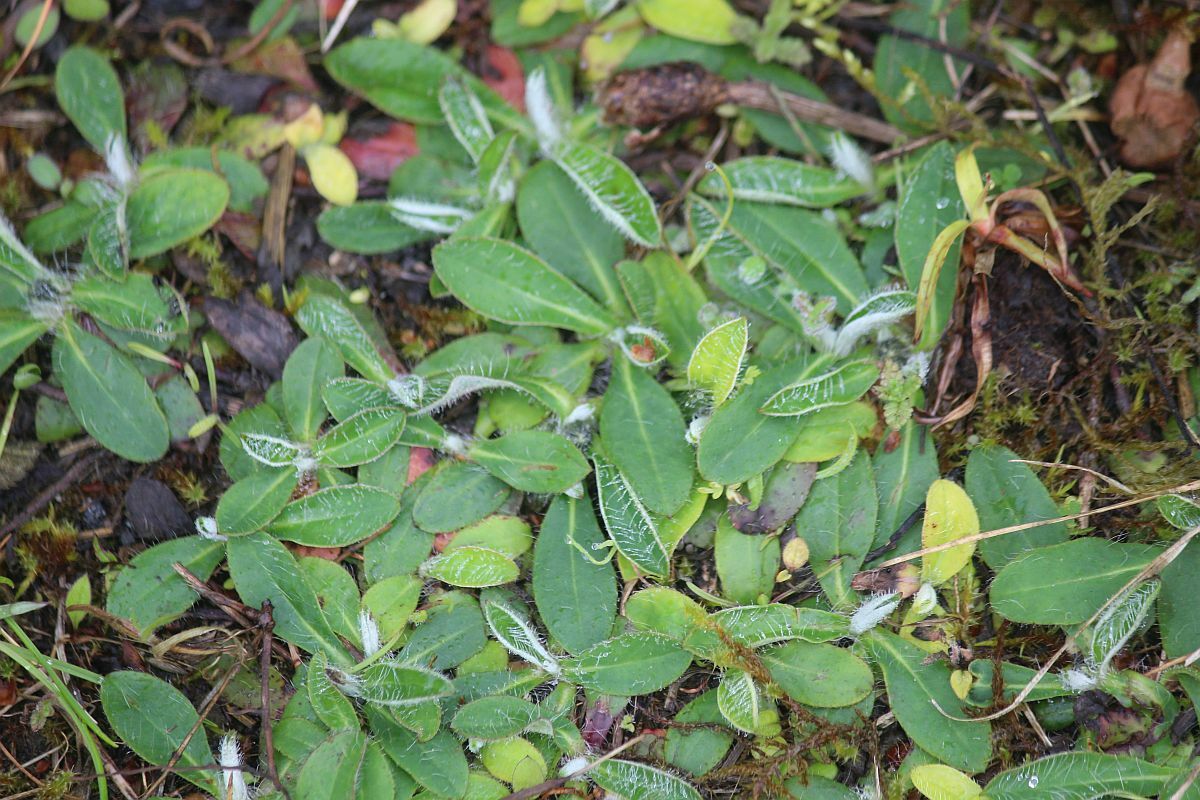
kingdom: Plantae
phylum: Tracheophyta
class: Magnoliopsida
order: Asterales
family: Asteraceae
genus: Pilosella
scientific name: Pilosella officinarum
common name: Mouse-ear hawkweed
